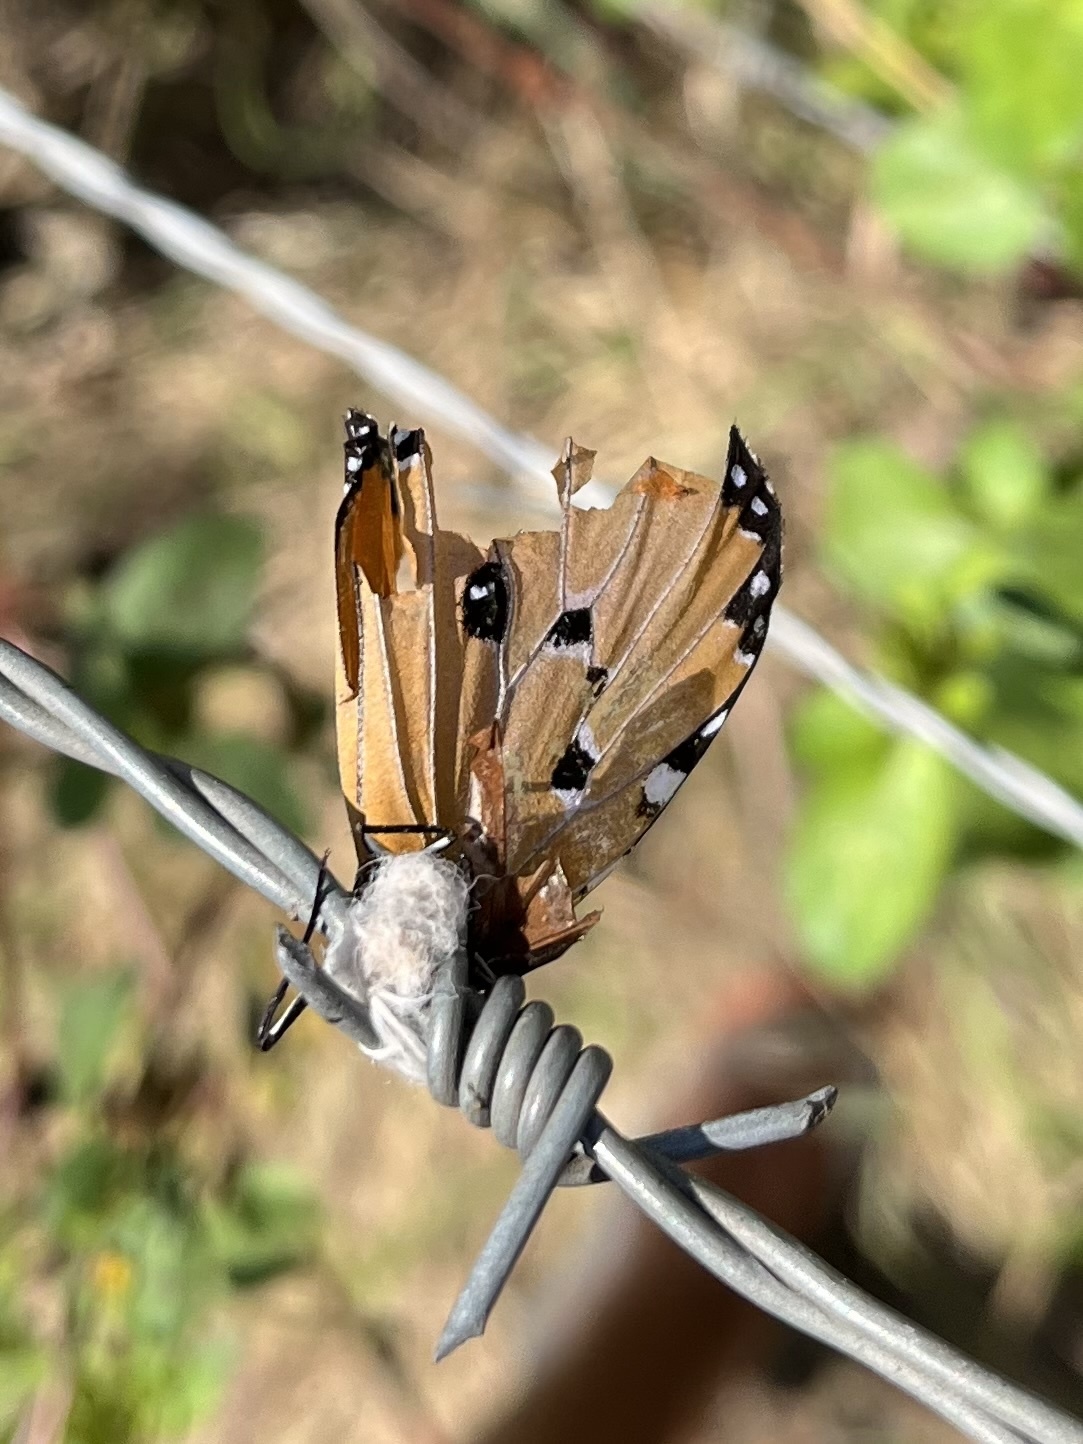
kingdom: Animalia
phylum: Arthropoda
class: Insecta
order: Lepidoptera
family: Nymphalidae
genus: Danaus
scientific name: Danaus chrysippus
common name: Plain tiger
